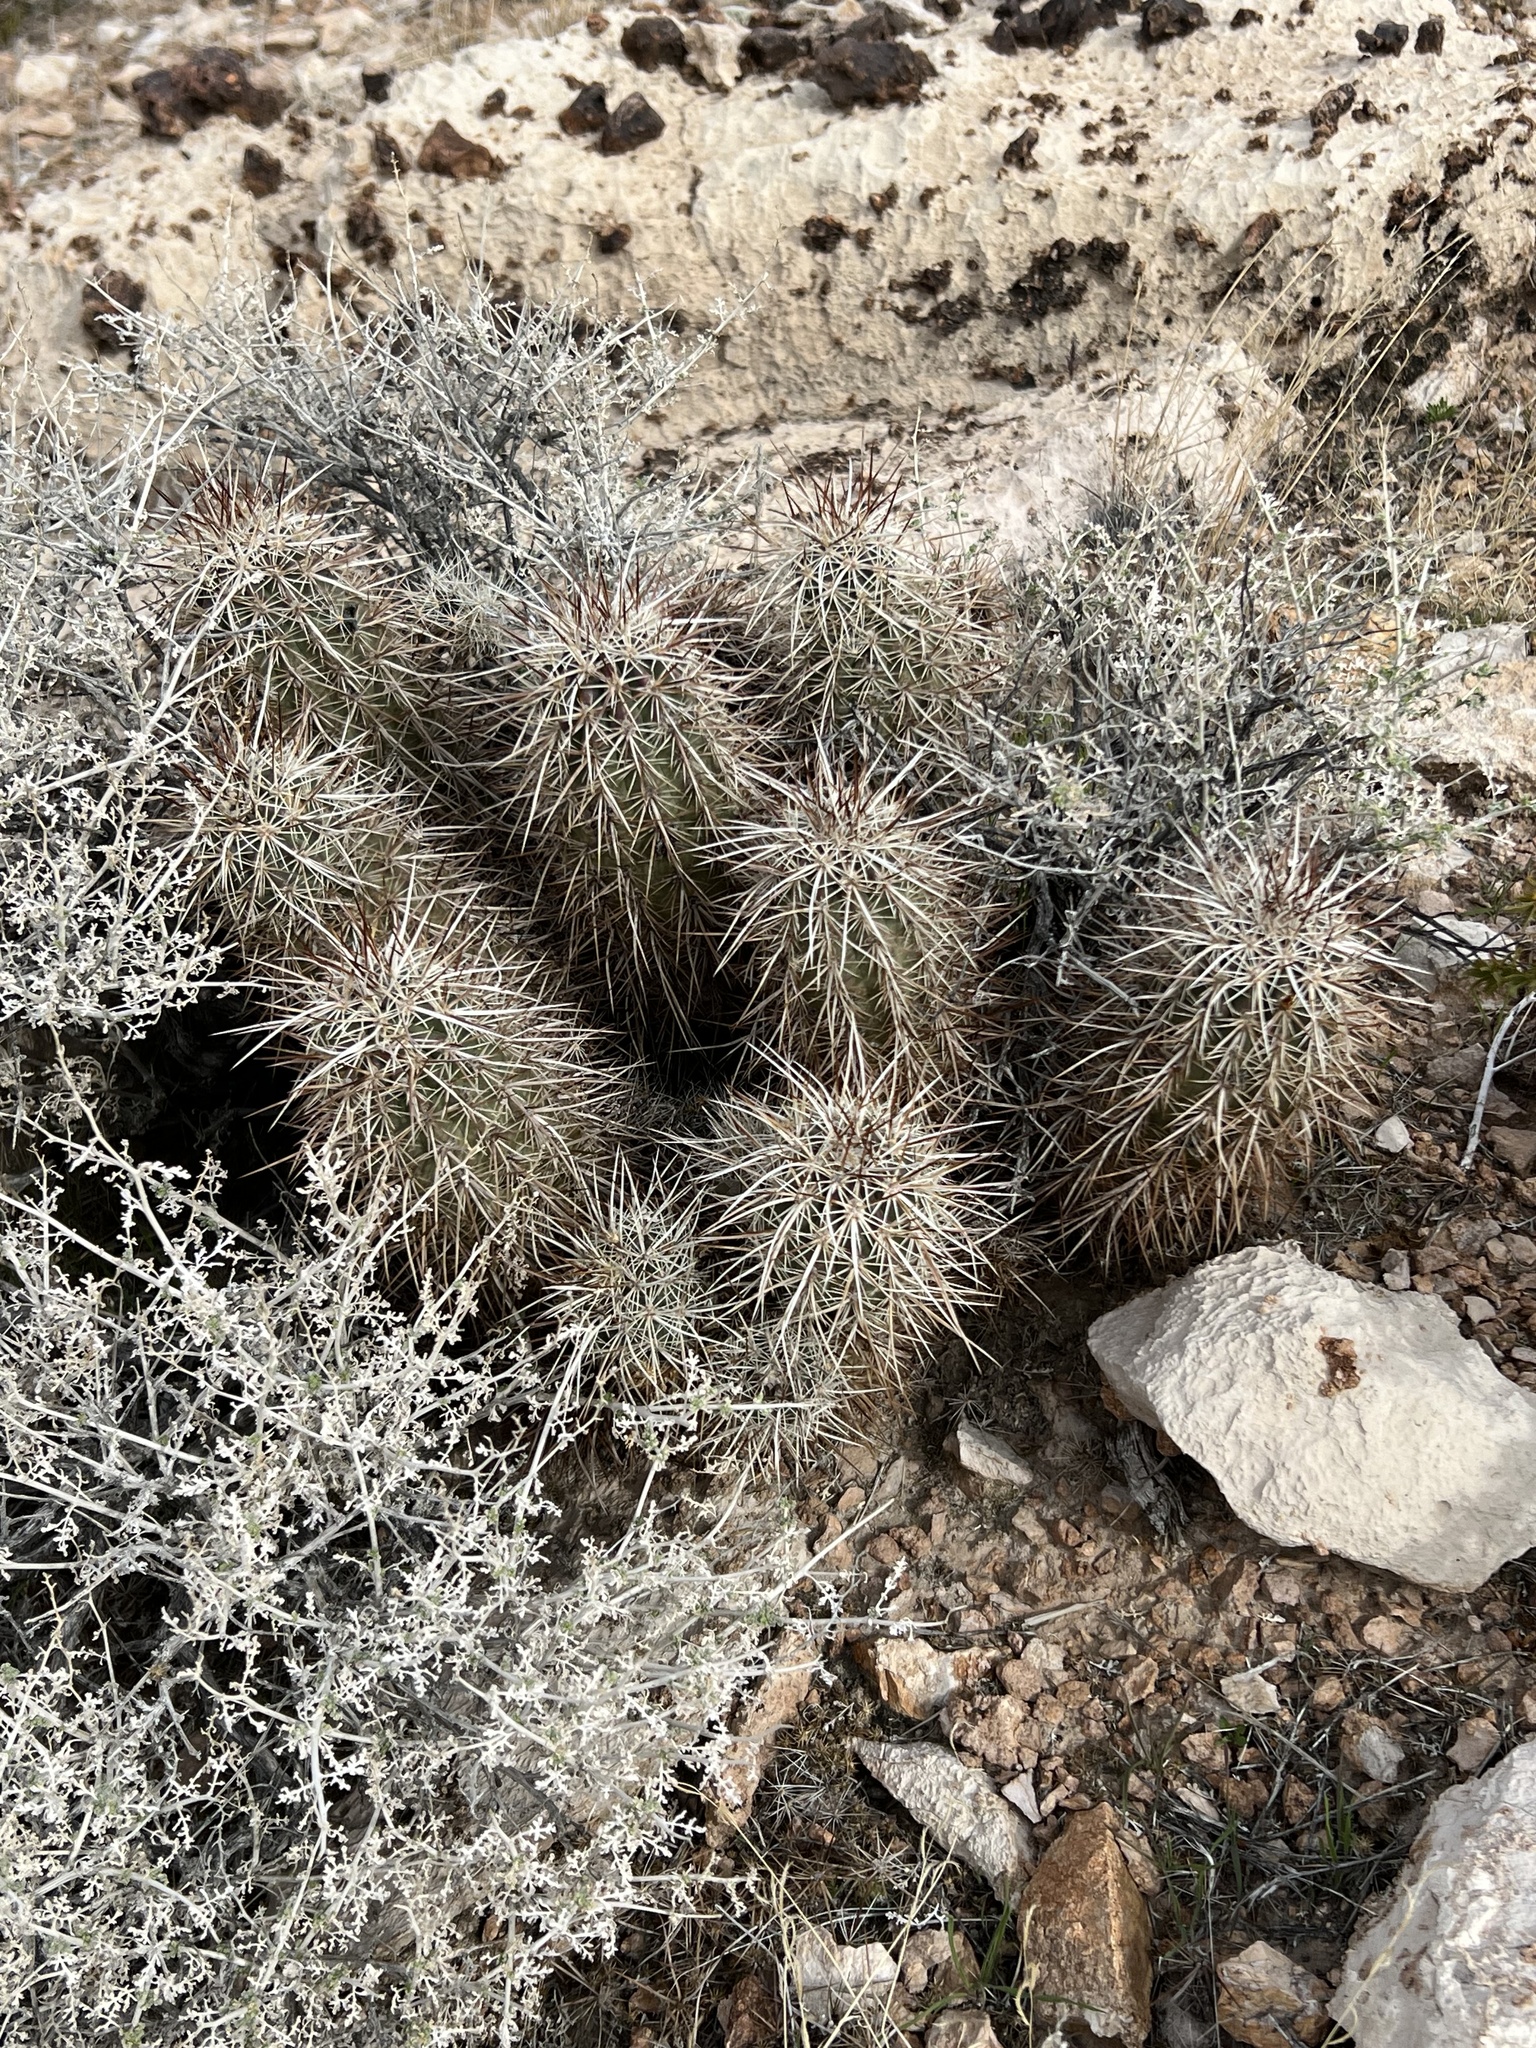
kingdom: Plantae
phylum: Tracheophyta
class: Magnoliopsida
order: Caryophyllales
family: Cactaceae
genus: Echinocereus
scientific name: Echinocereus engelmannii
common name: Engelmann's hedgehog cactus
